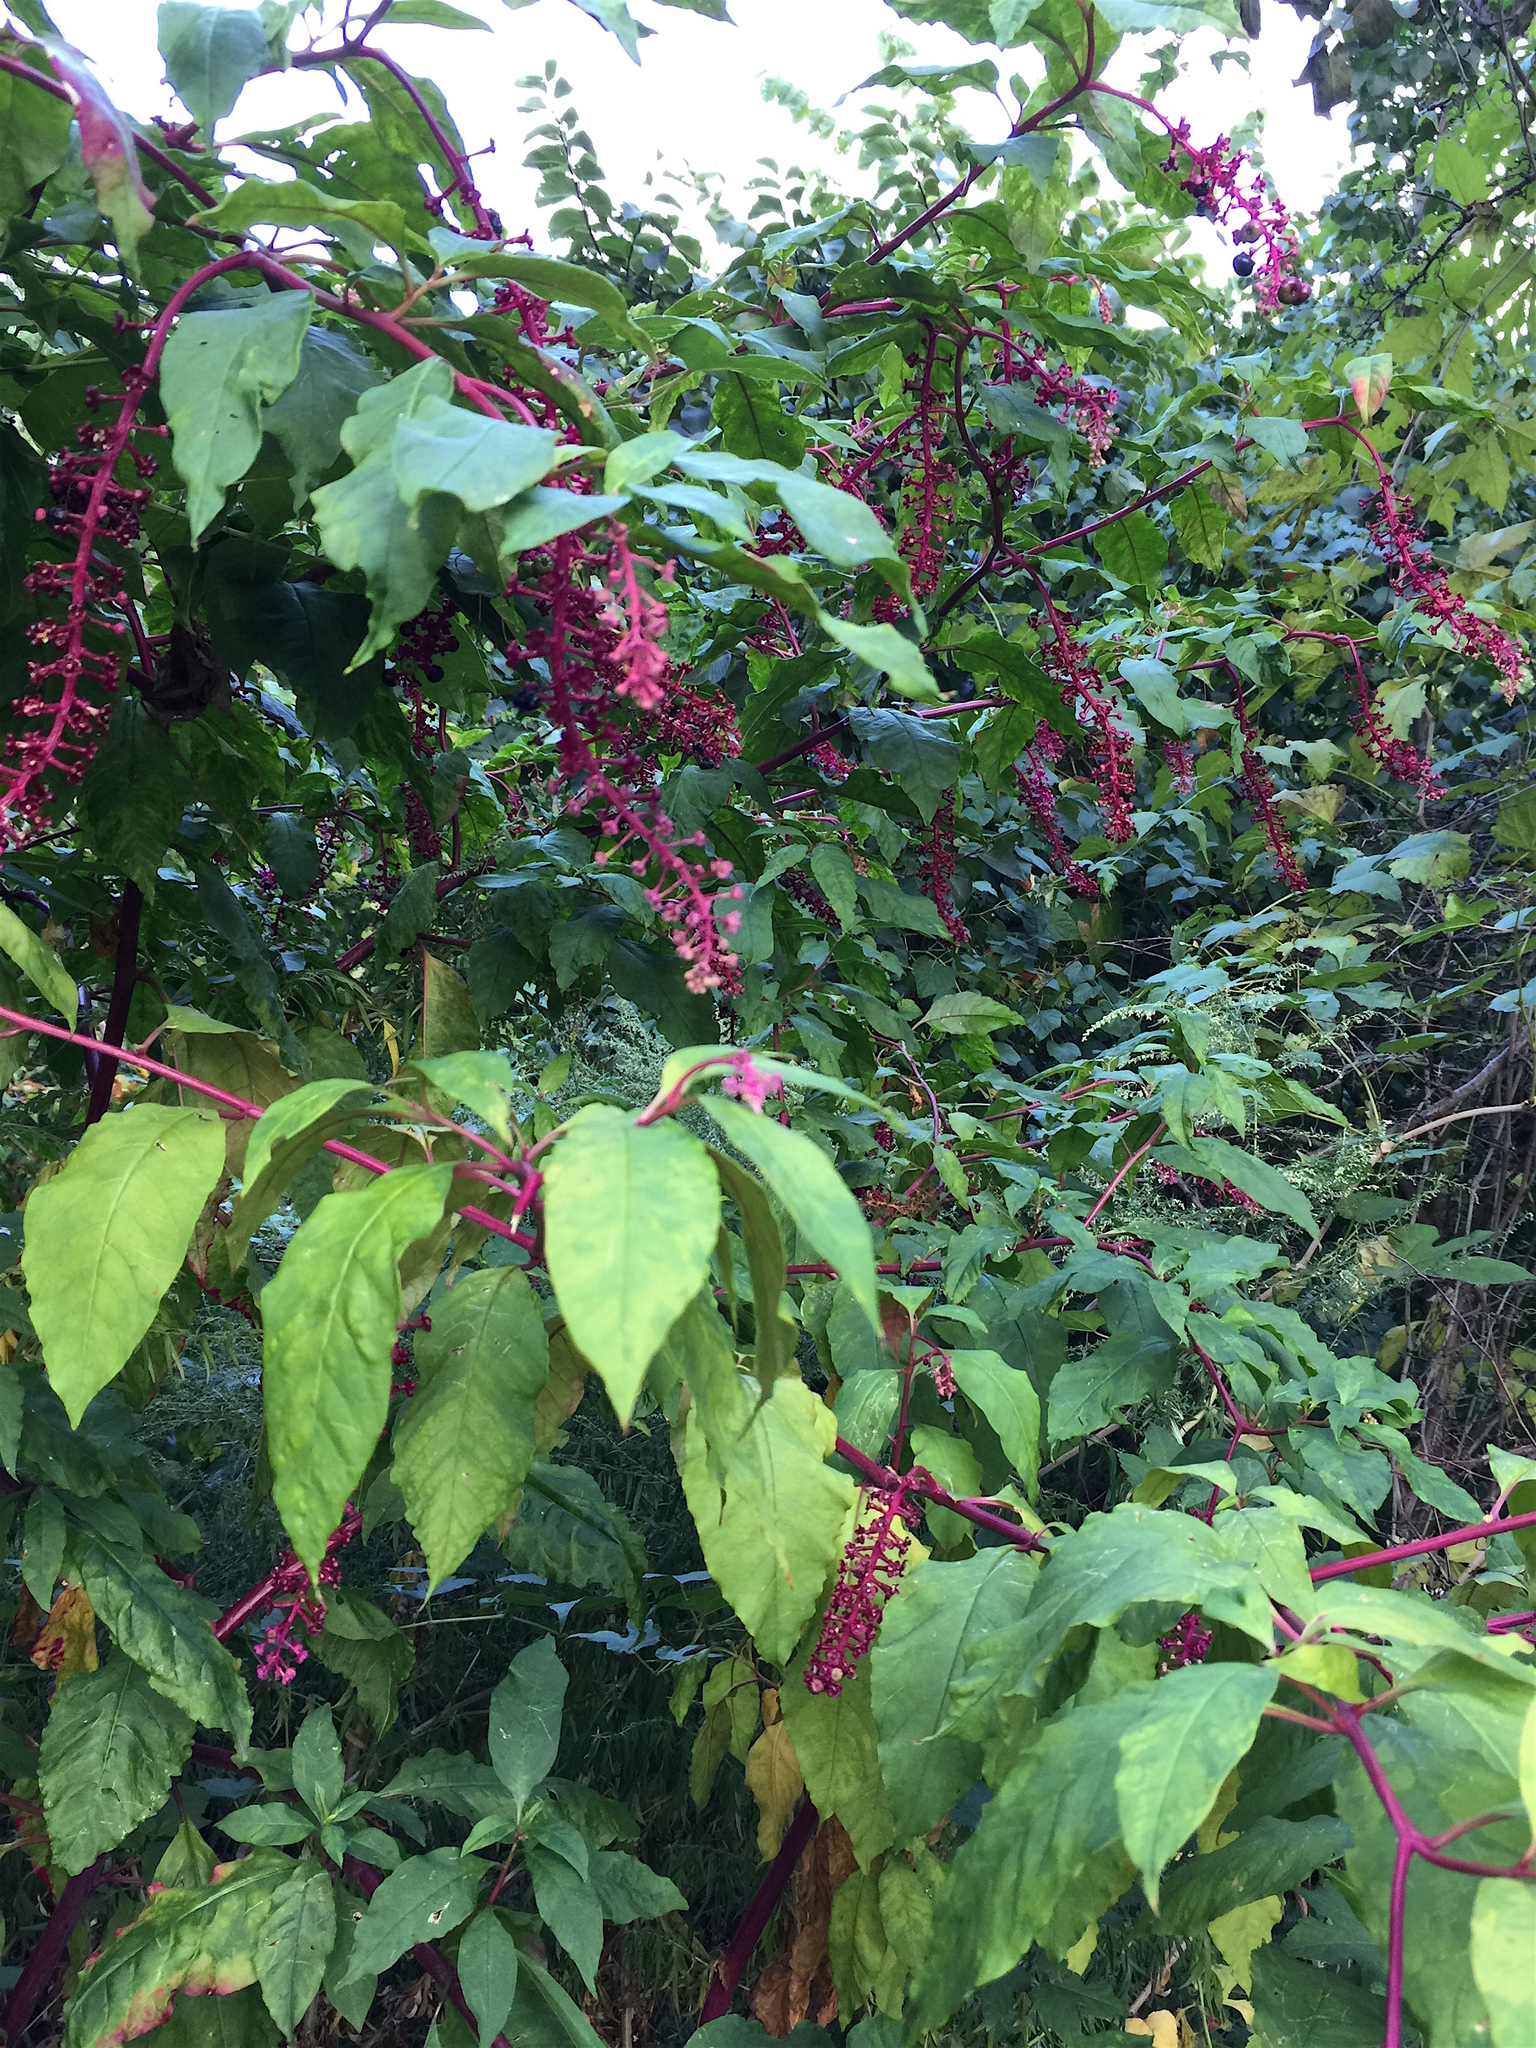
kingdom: Plantae
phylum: Tracheophyta
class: Magnoliopsida
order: Caryophyllales
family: Phytolaccaceae
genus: Phytolacca
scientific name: Phytolacca americana
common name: American pokeweed
